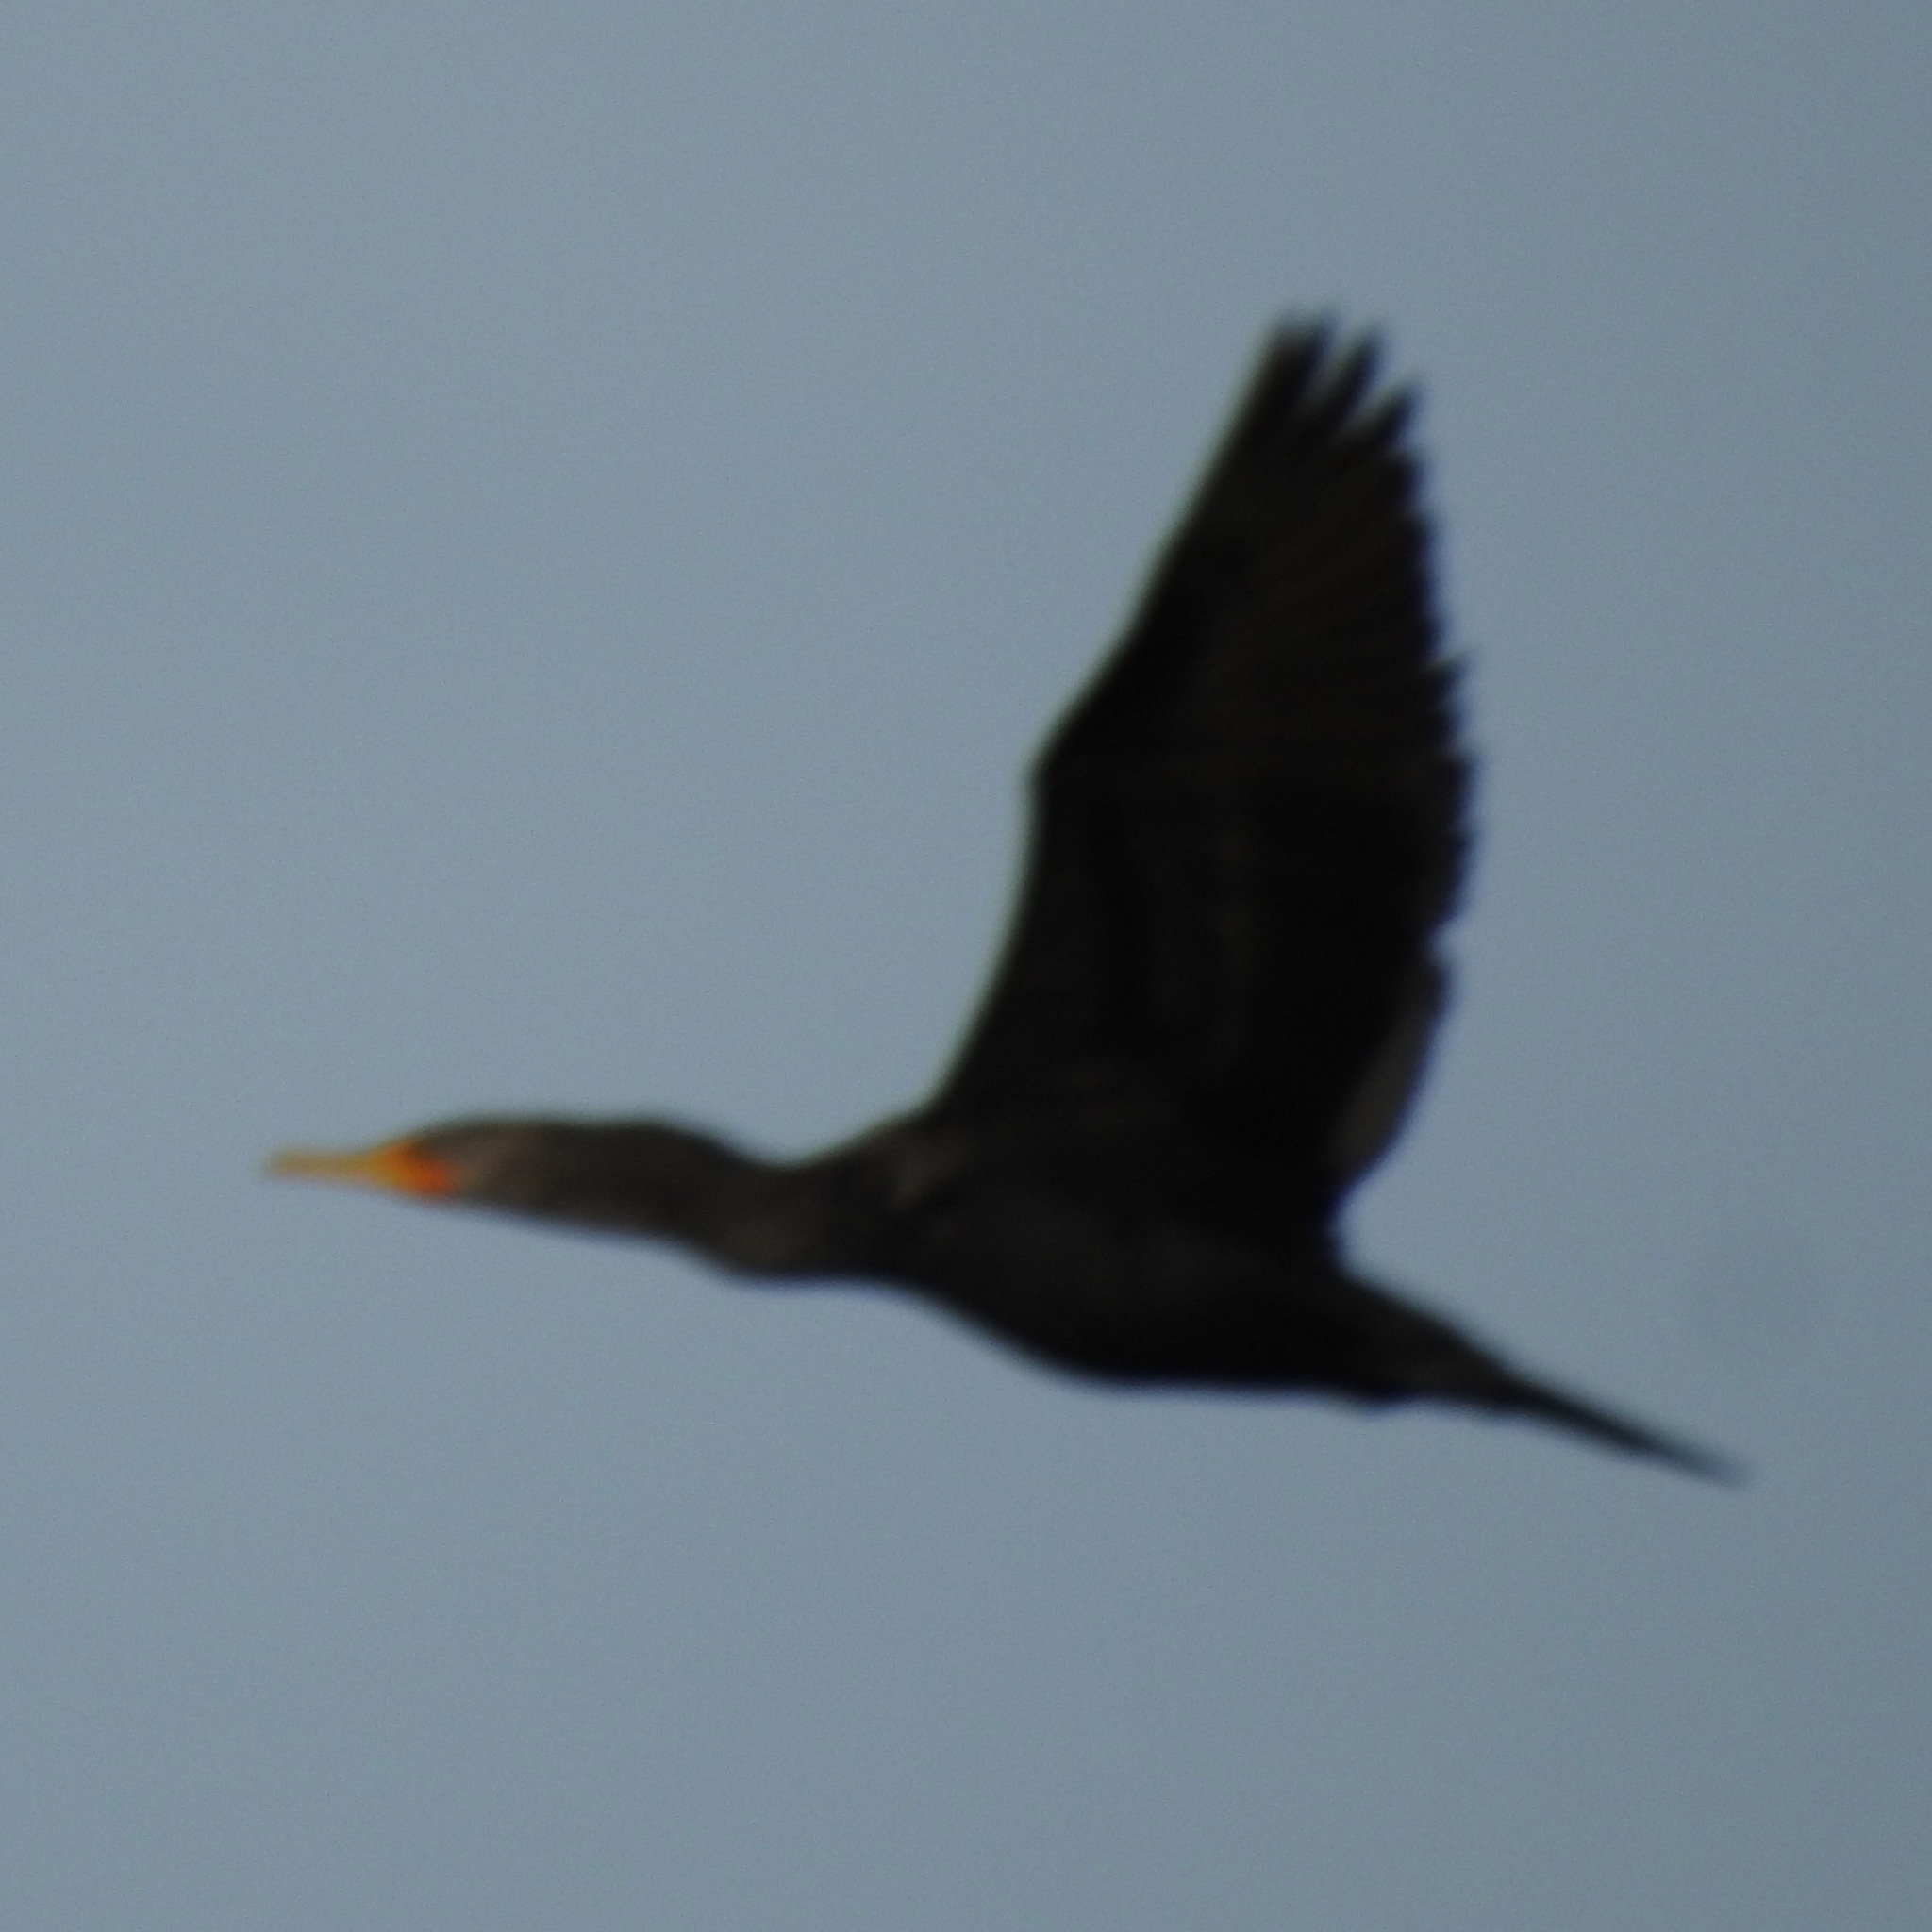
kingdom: Animalia
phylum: Chordata
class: Aves
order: Suliformes
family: Phalacrocoracidae
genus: Phalacrocorax
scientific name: Phalacrocorax auritus
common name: Double-crested cormorant
